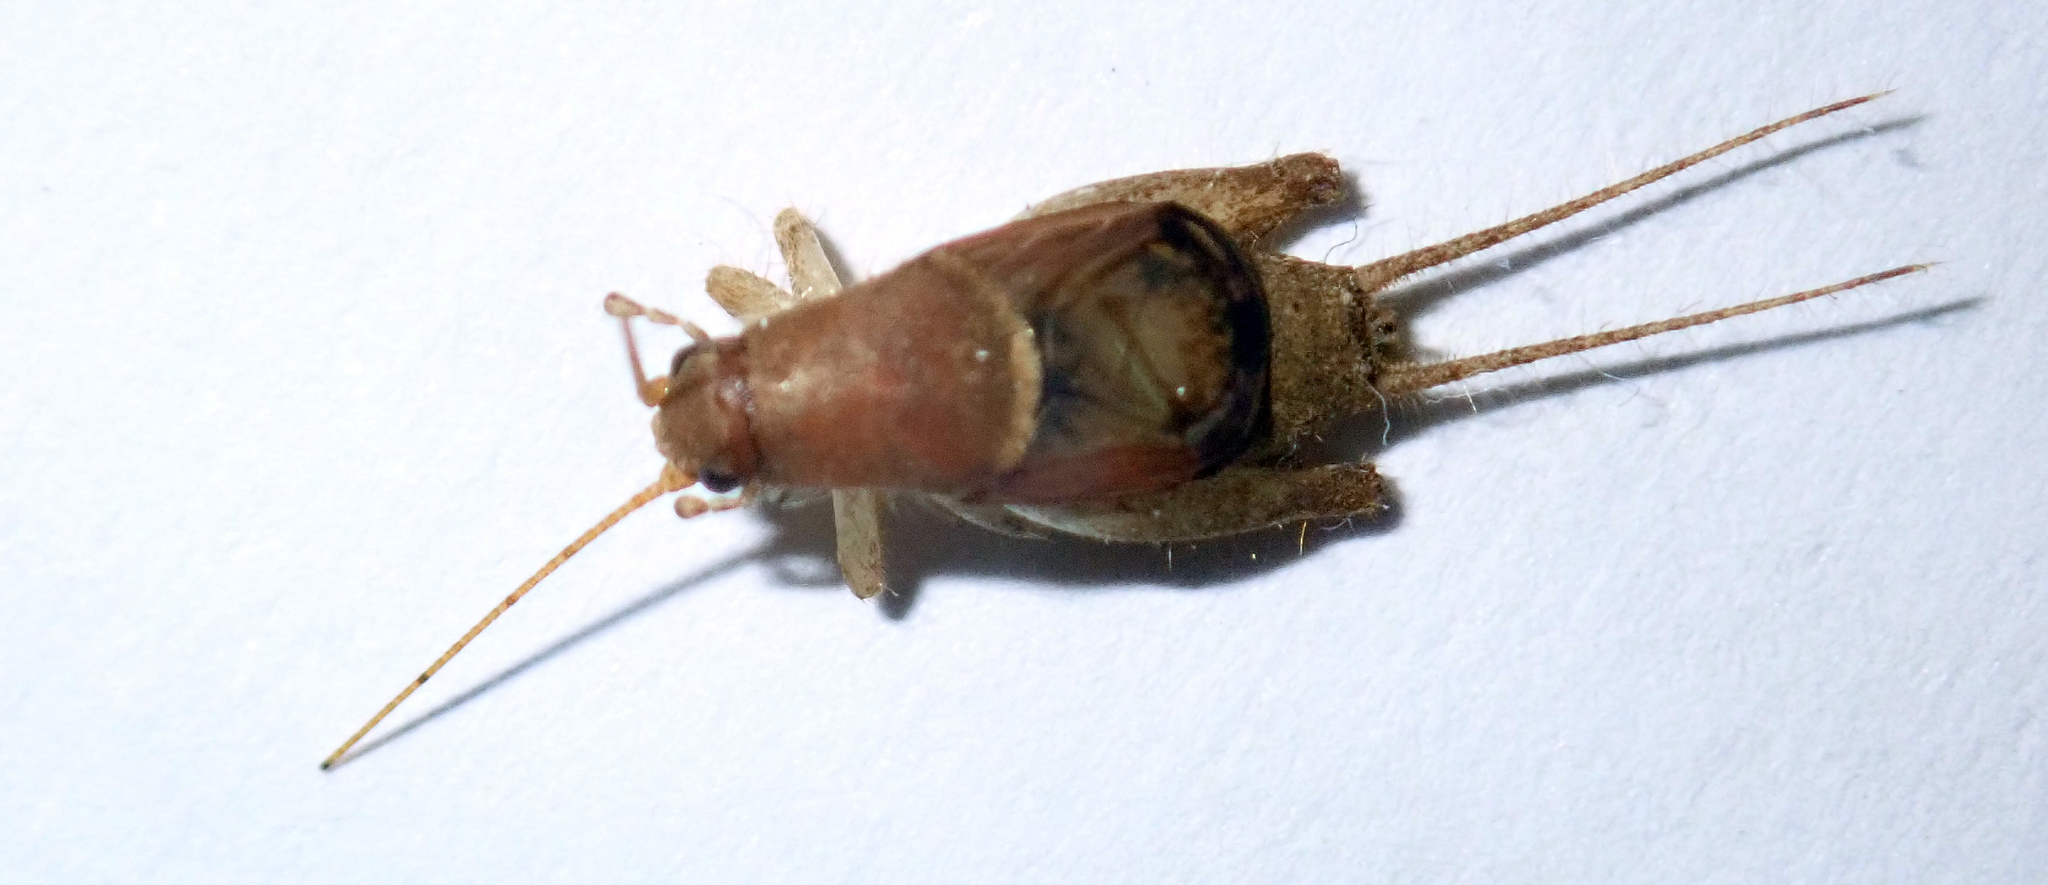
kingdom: Animalia
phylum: Arthropoda
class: Insecta
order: Orthoptera
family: Mogoplistidae
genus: Ornebius
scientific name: Ornebius aperta
